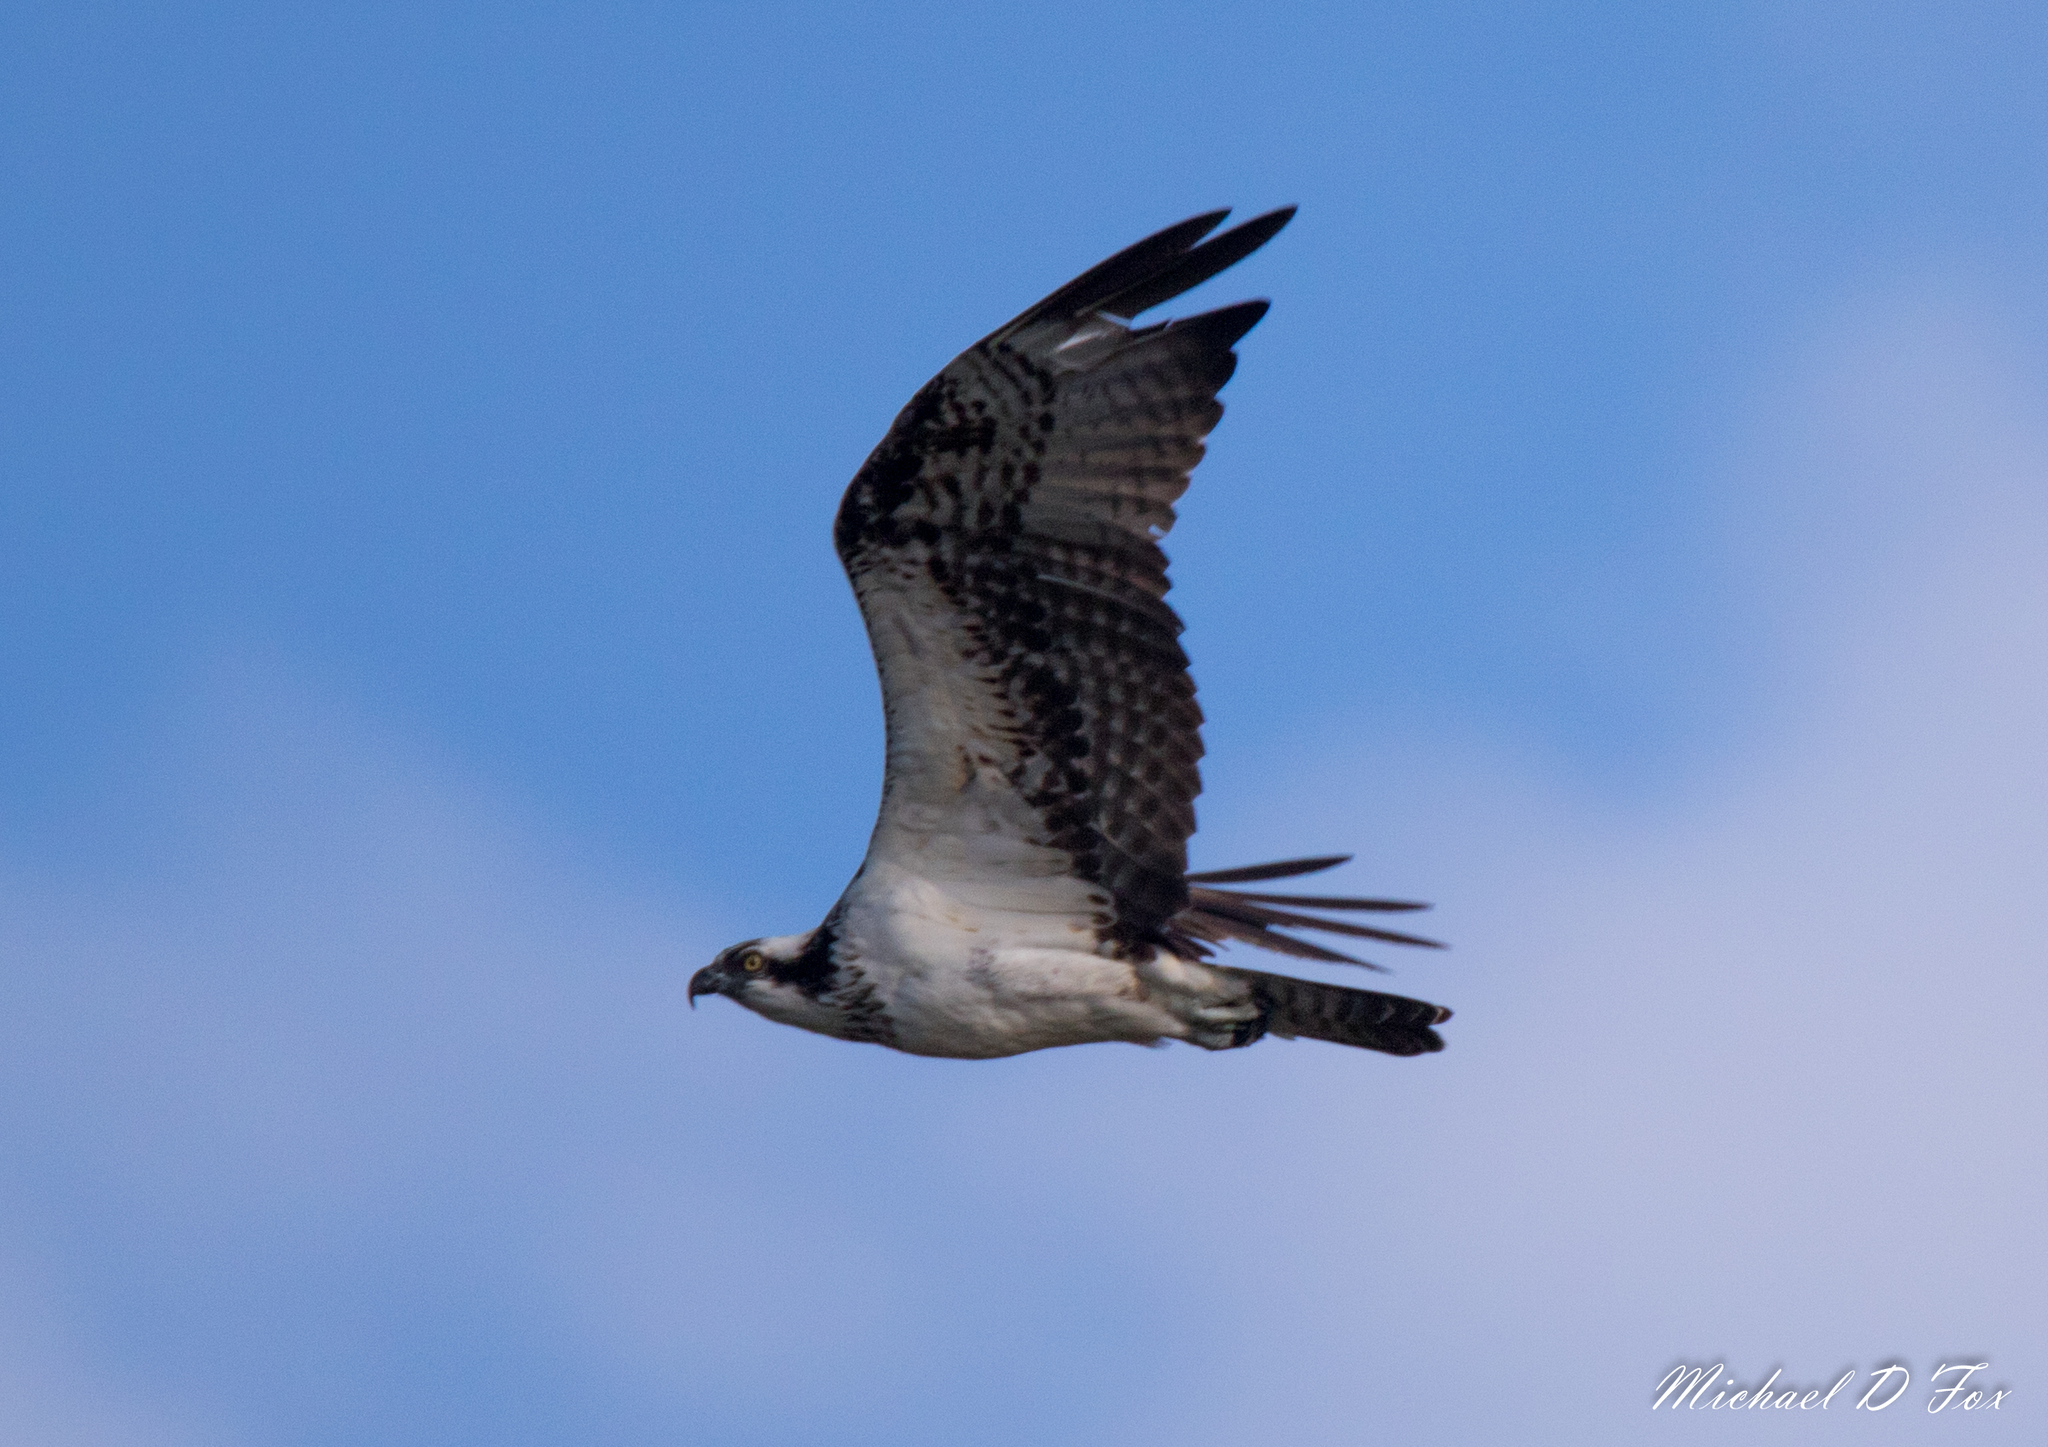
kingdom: Animalia
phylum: Chordata
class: Aves
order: Accipitriformes
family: Pandionidae
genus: Pandion
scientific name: Pandion haliaetus
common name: Osprey
